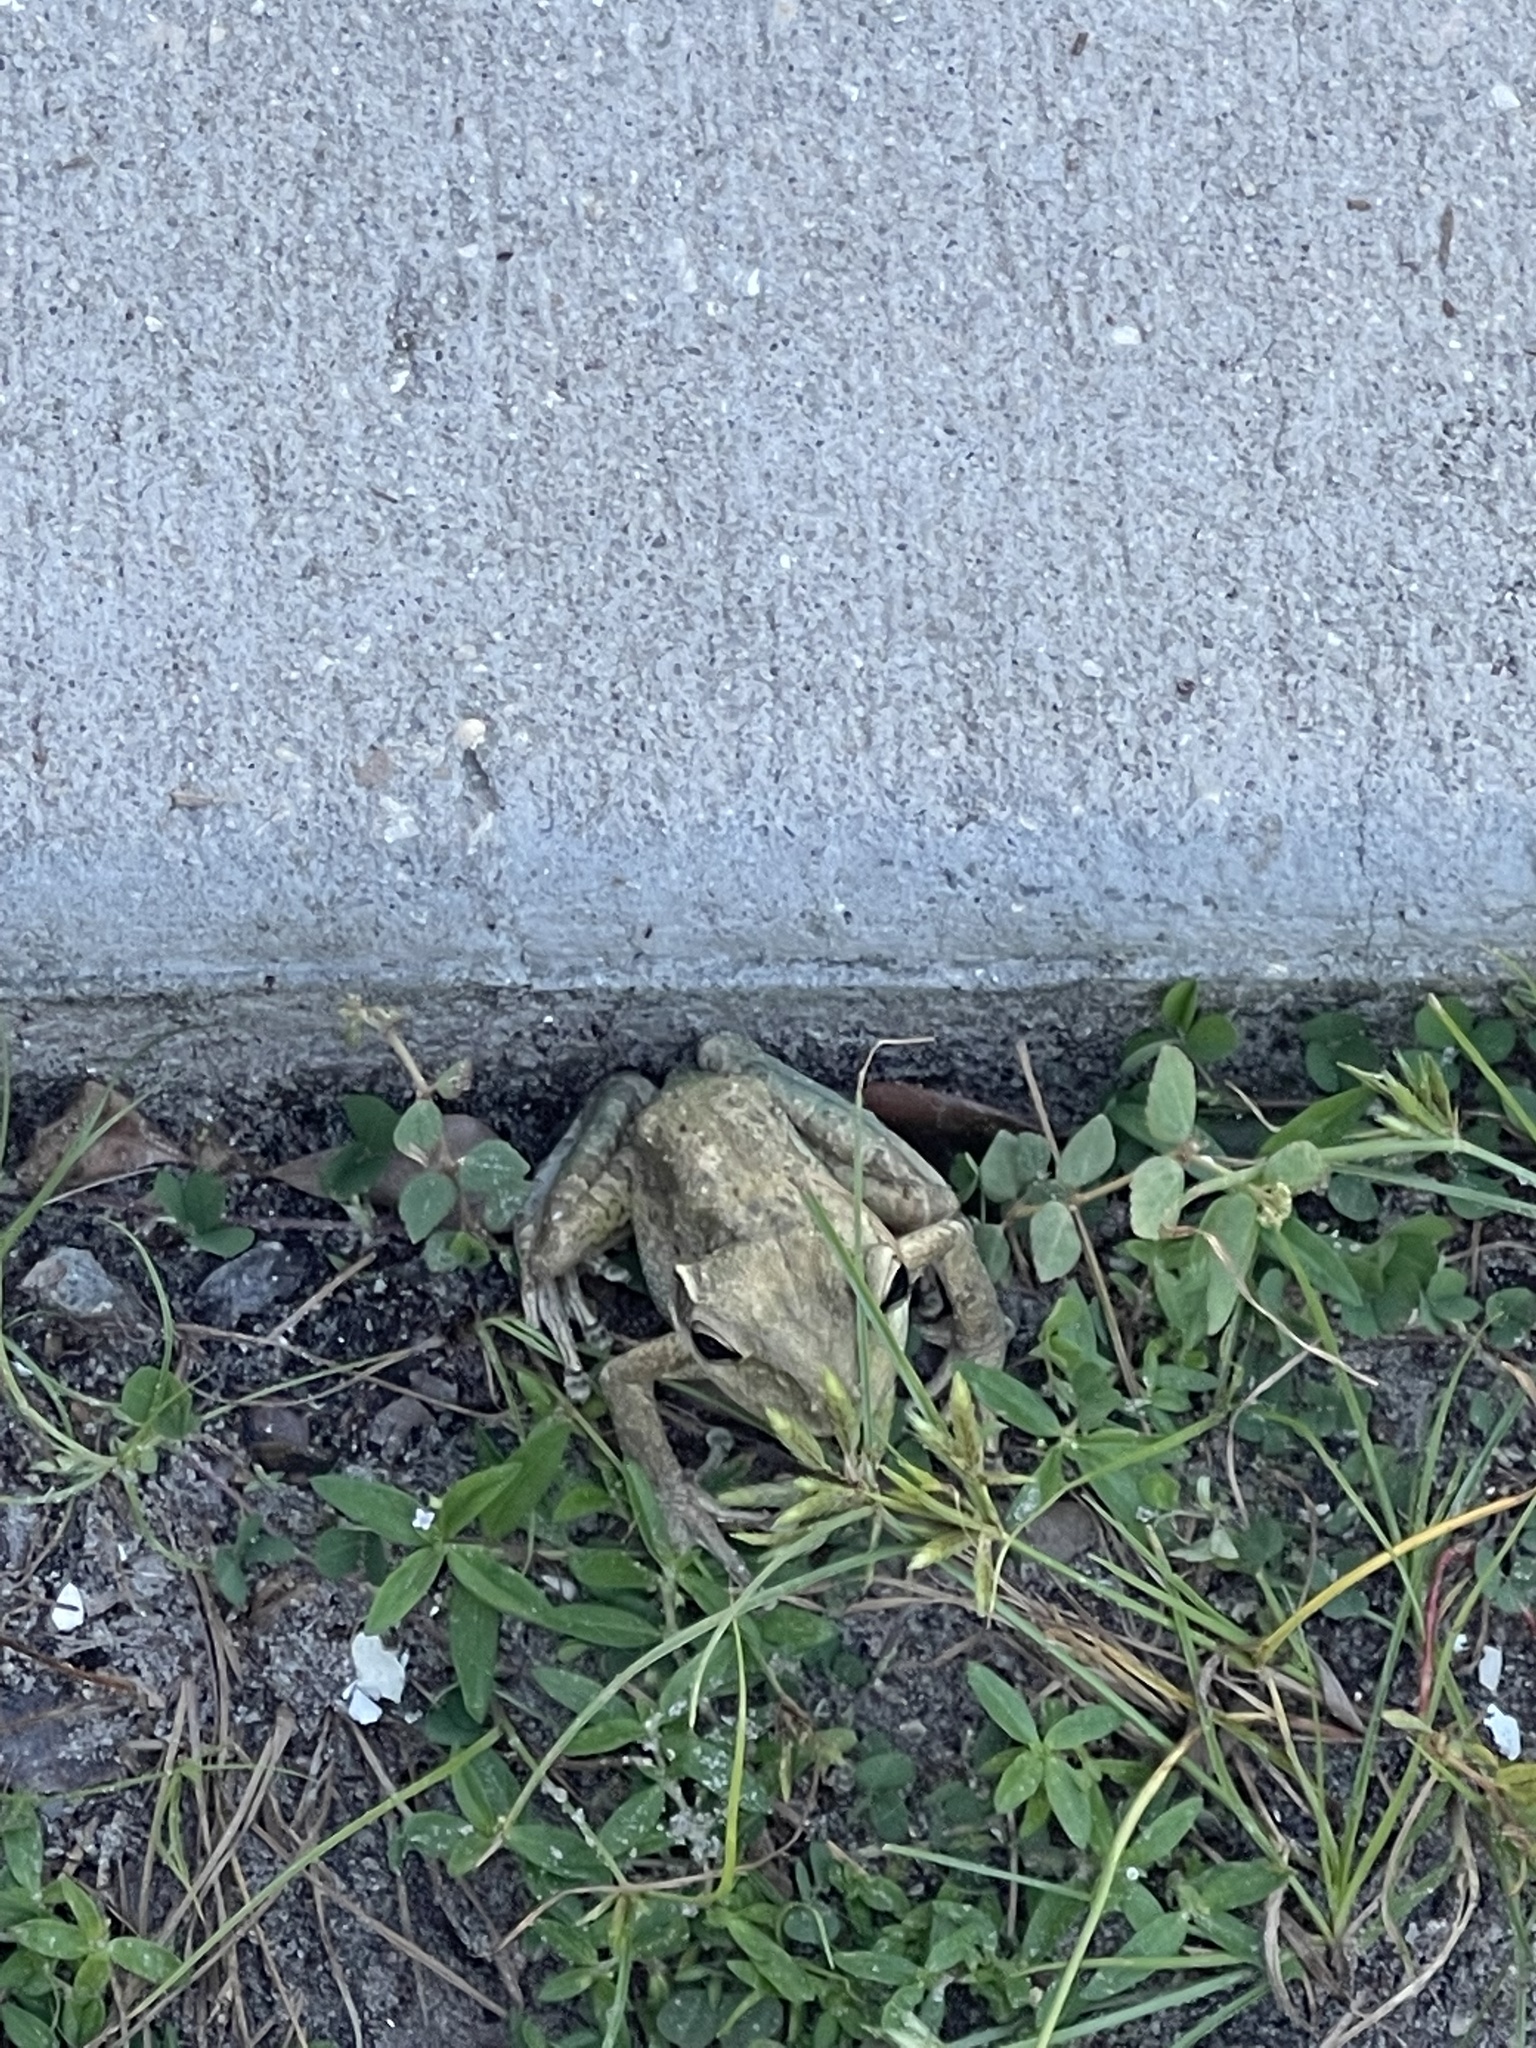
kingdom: Animalia
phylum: Chordata
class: Amphibia
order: Anura
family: Hylidae
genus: Osteopilus
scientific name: Osteopilus septentrionalis
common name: Cuban treefrog
